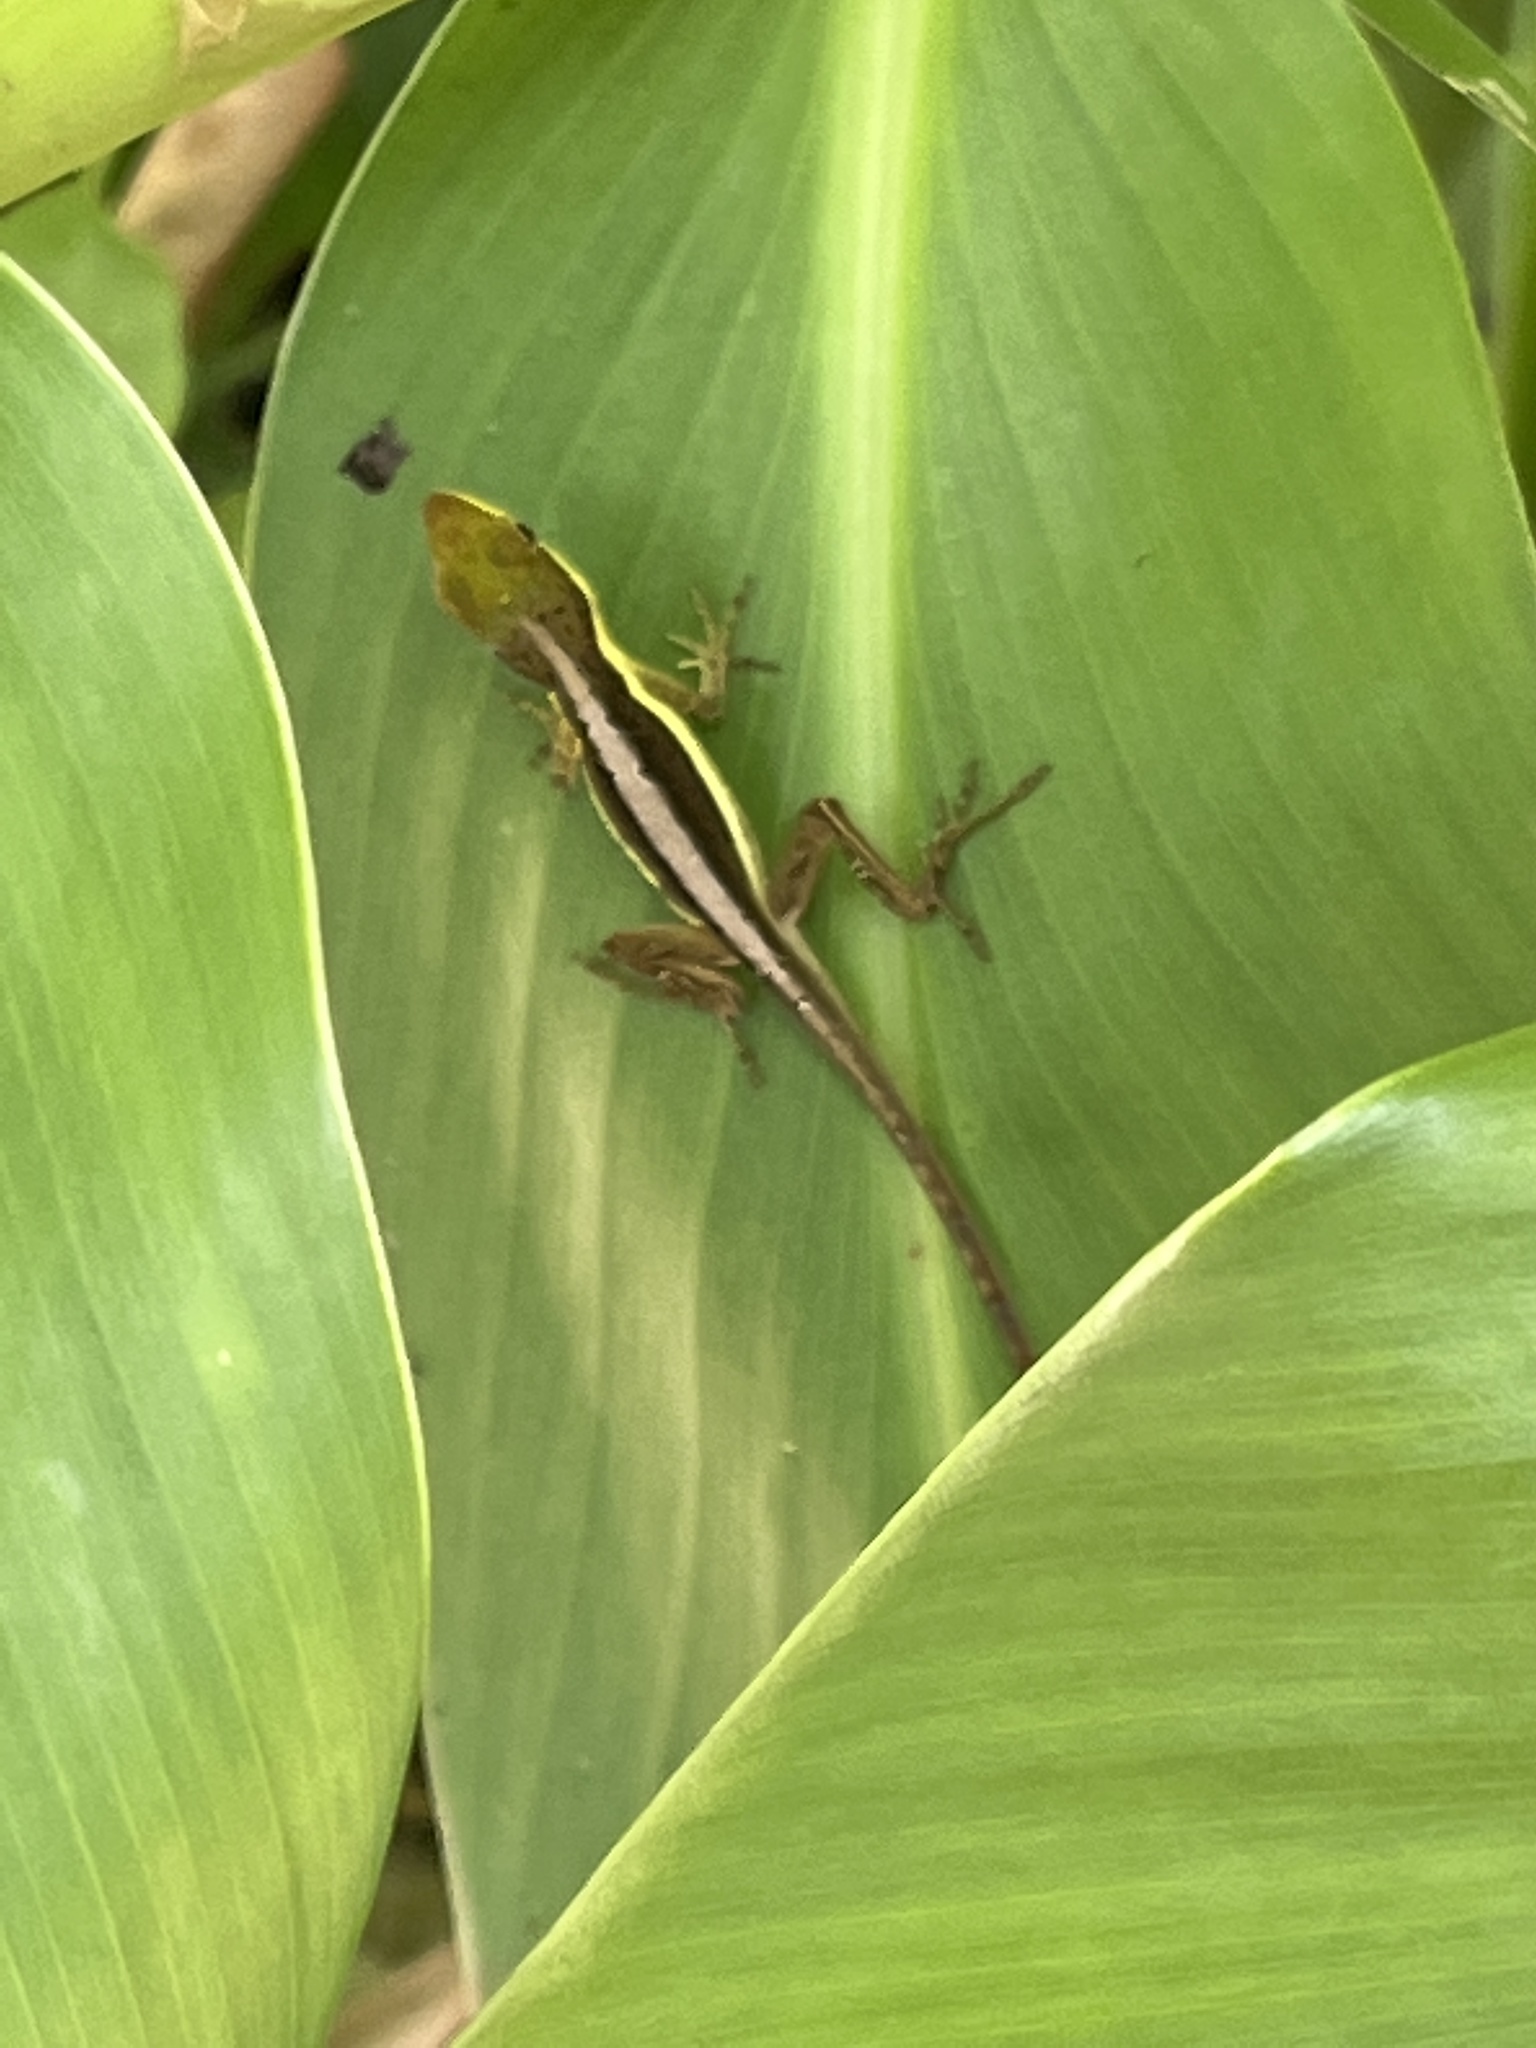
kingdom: Animalia
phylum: Chordata
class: Squamata
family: Dactyloidae
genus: Anolis
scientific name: Anolis krugi
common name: Krug's anole
